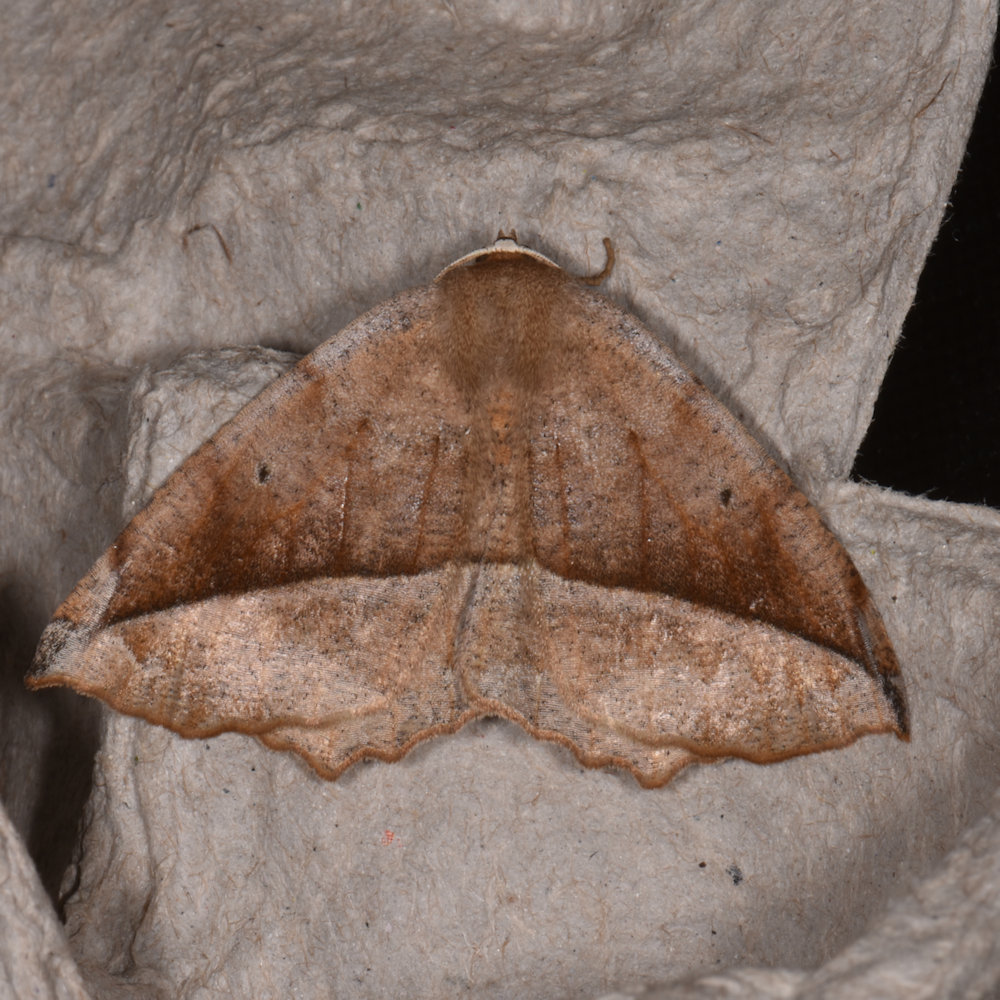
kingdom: Animalia
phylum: Arthropoda
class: Insecta
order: Lepidoptera
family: Geometridae
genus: Eutrapela
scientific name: Eutrapela clemataria
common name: Curved-toothed geometer
